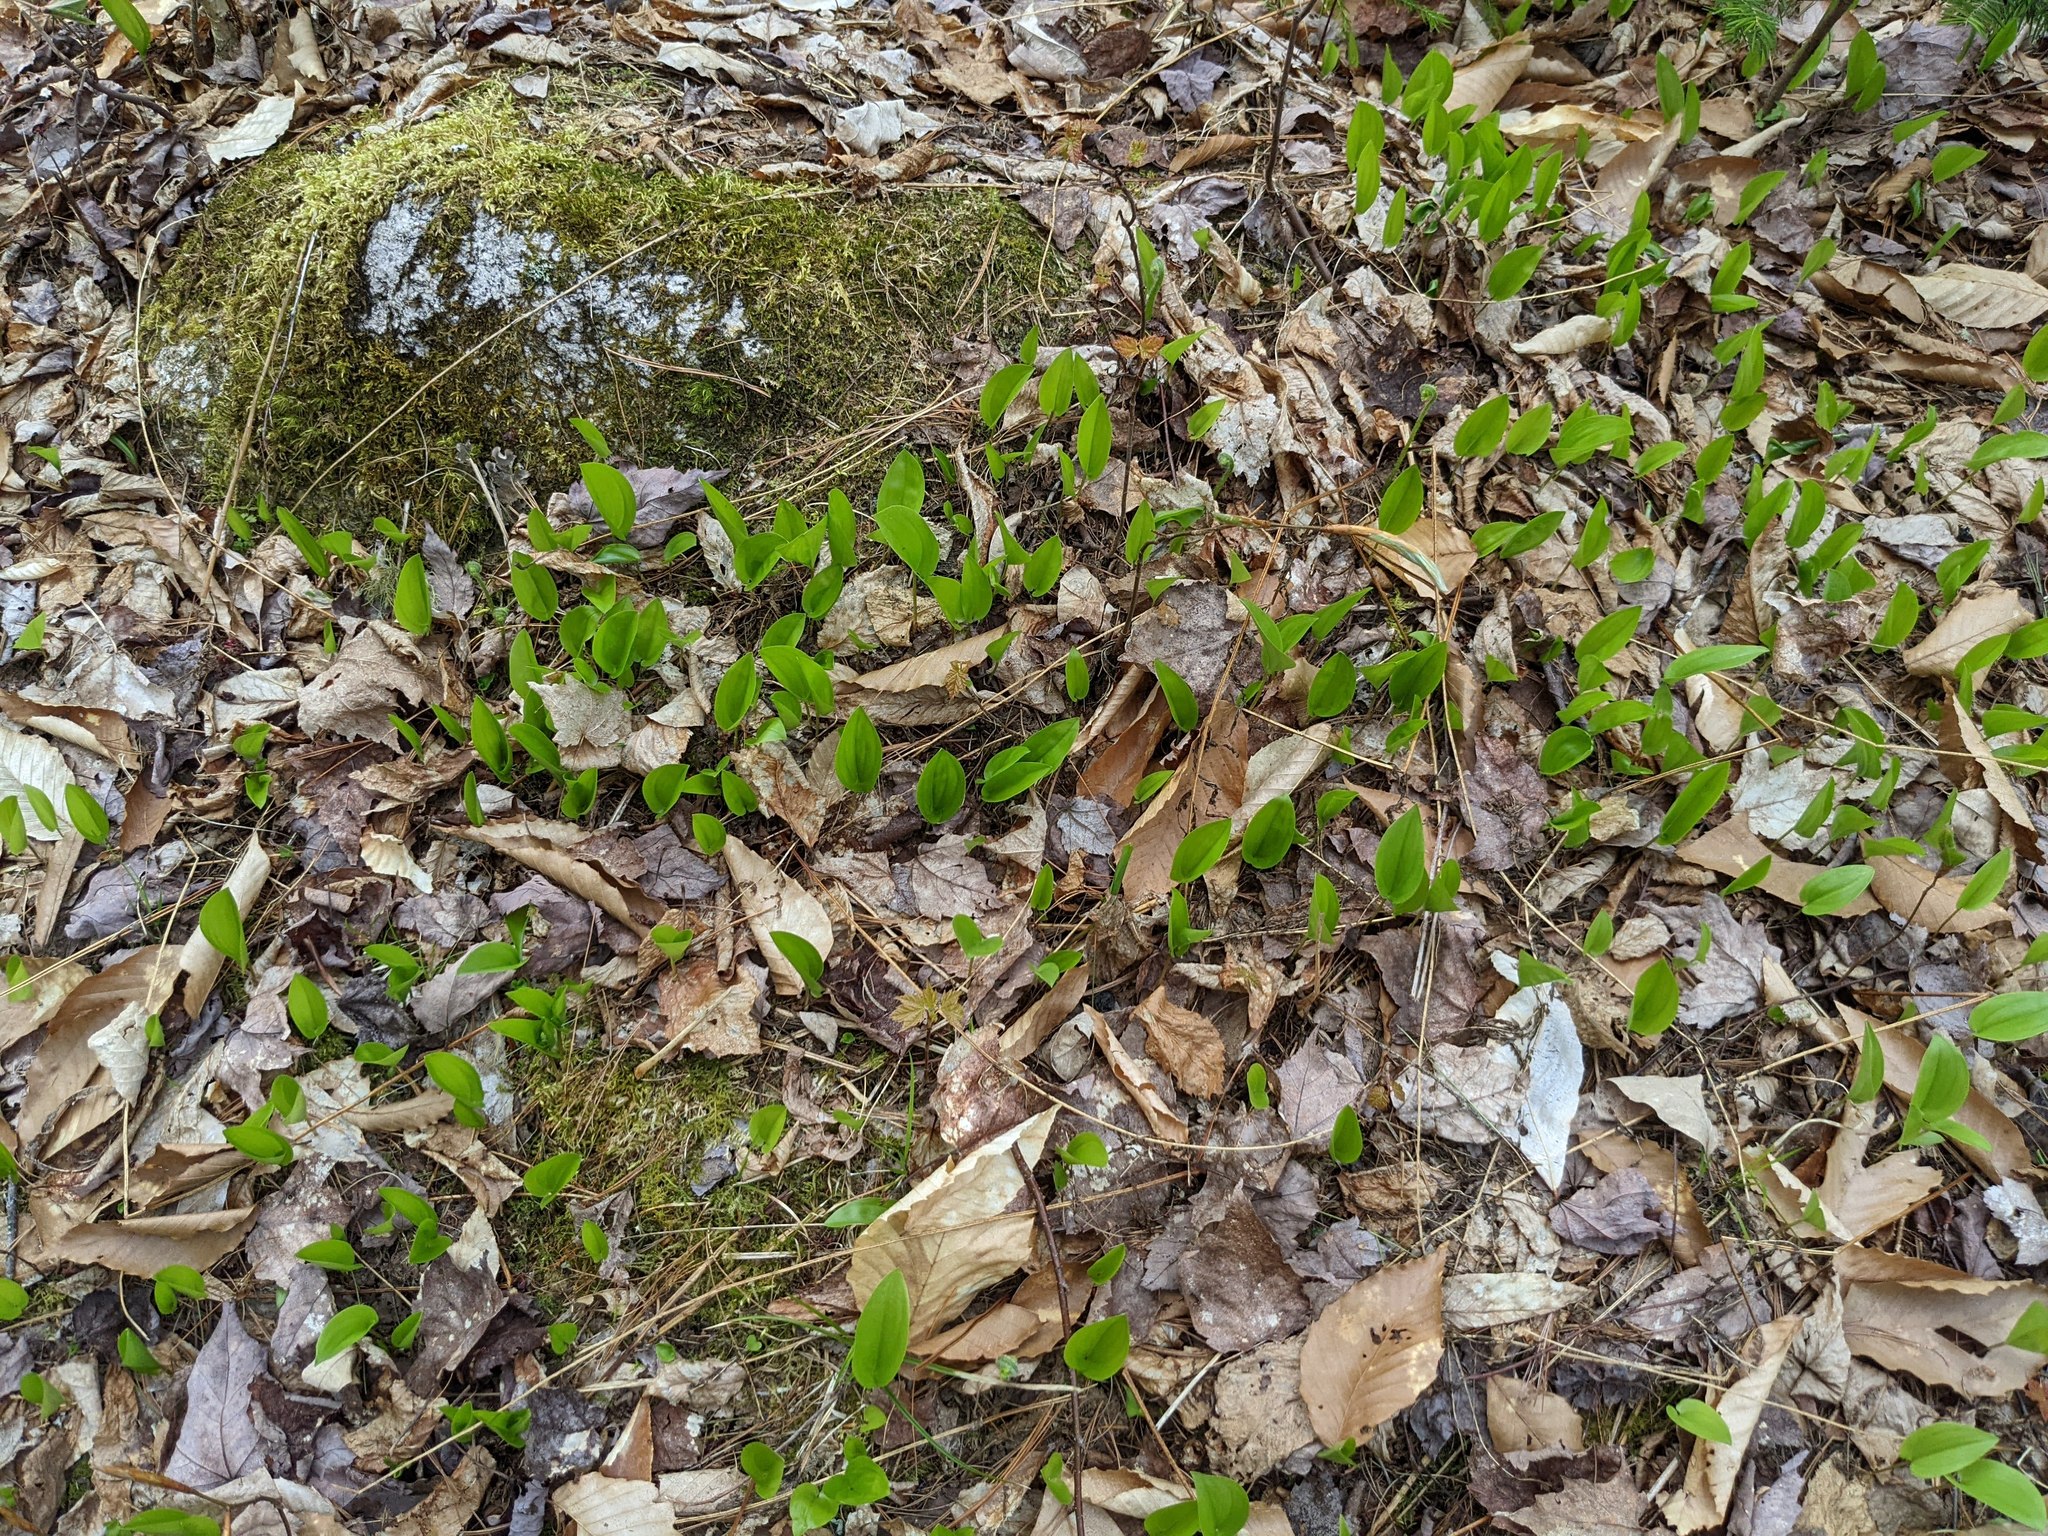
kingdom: Plantae
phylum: Tracheophyta
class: Liliopsida
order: Asparagales
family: Asparagaceae
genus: Maianthemum
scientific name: Maianthemum canadense
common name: False lily-of-the-valley
